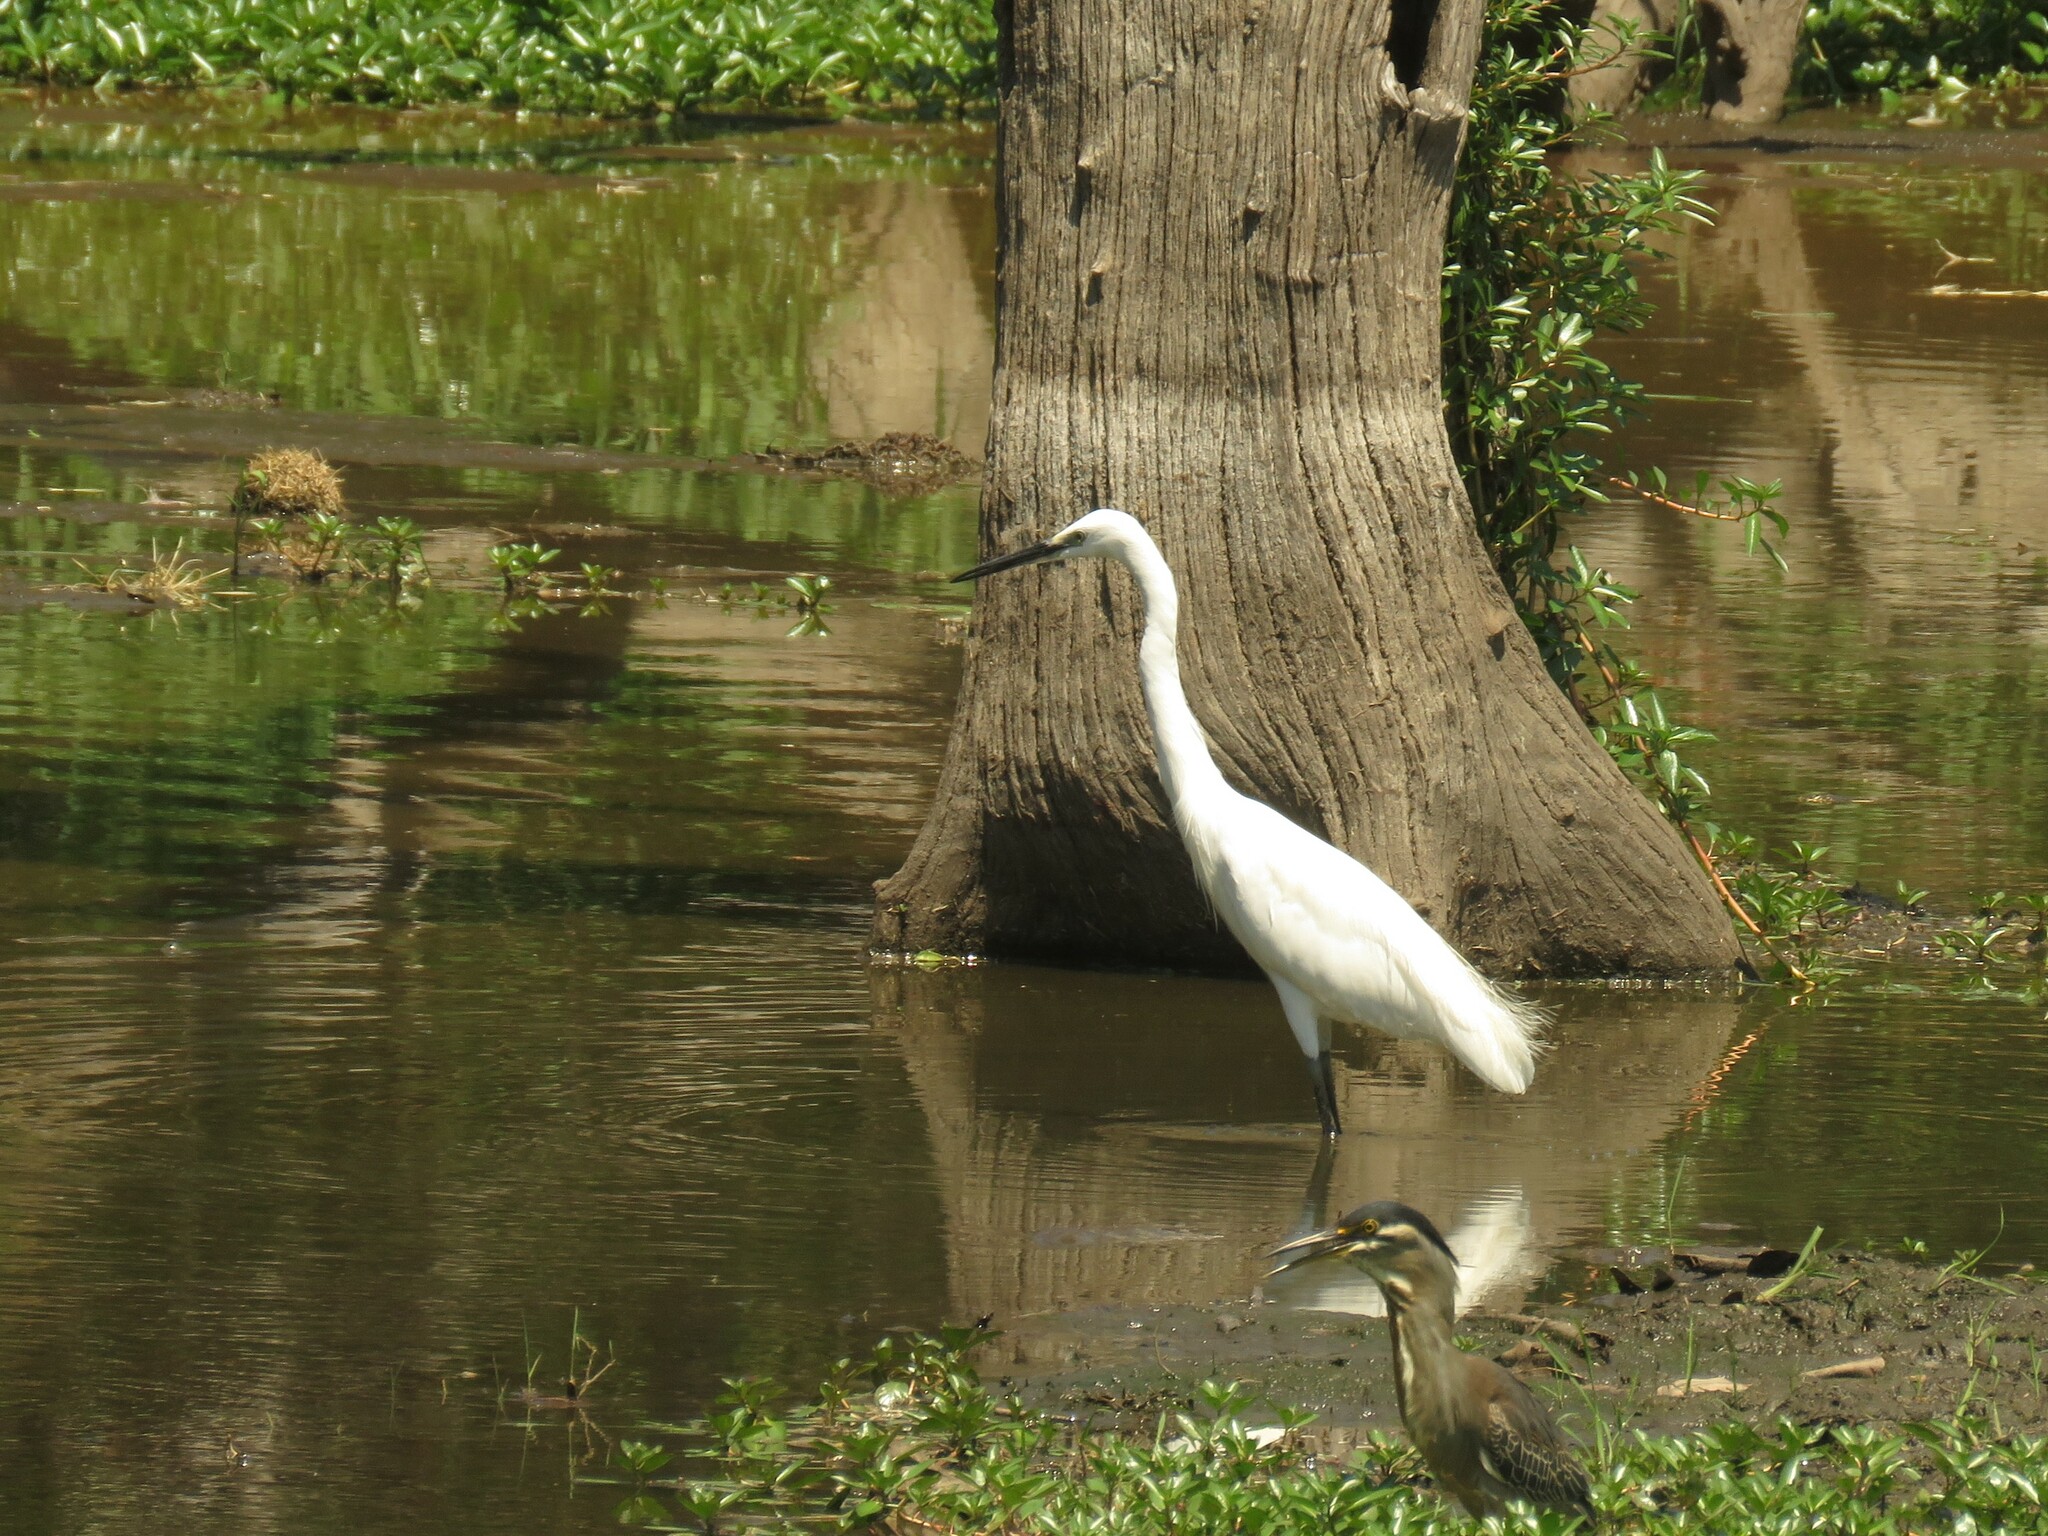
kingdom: Animalia
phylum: Chordata
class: Aves
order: Pelecaniformes
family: Ardeidae
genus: Egretta
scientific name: Egretta garzetta
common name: Little egret
